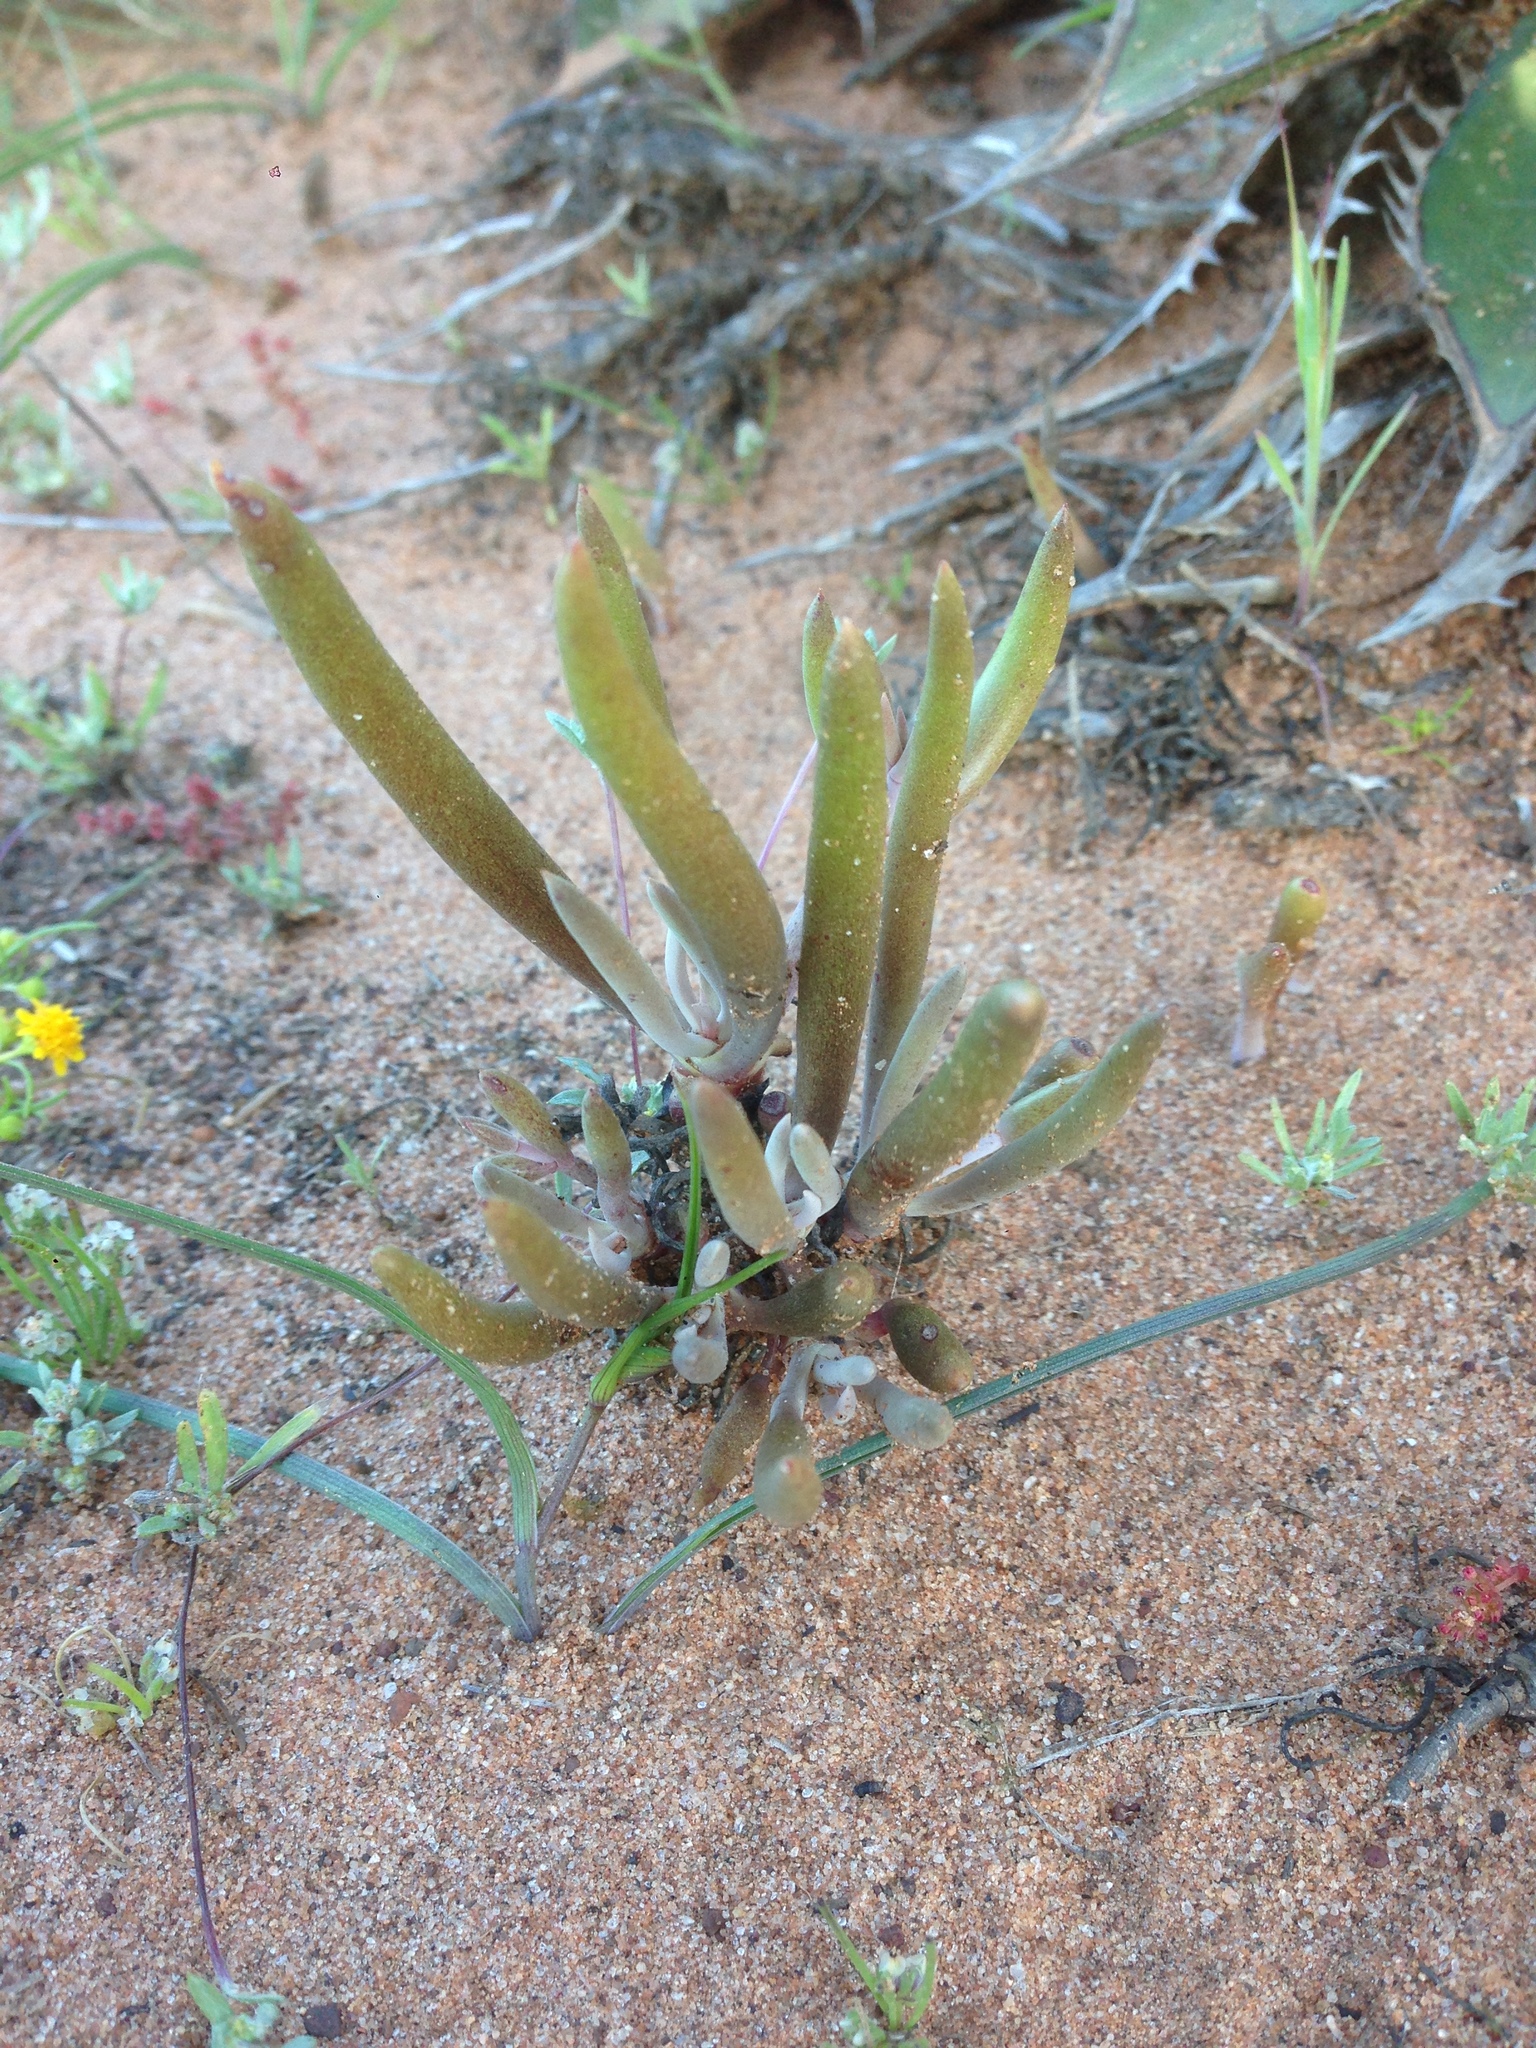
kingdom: Plantae
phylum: Tracheophyta
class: Magnoliopsida
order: Saxifragales
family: Crassulaceae
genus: Dudleya
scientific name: Dudleya attenuata
